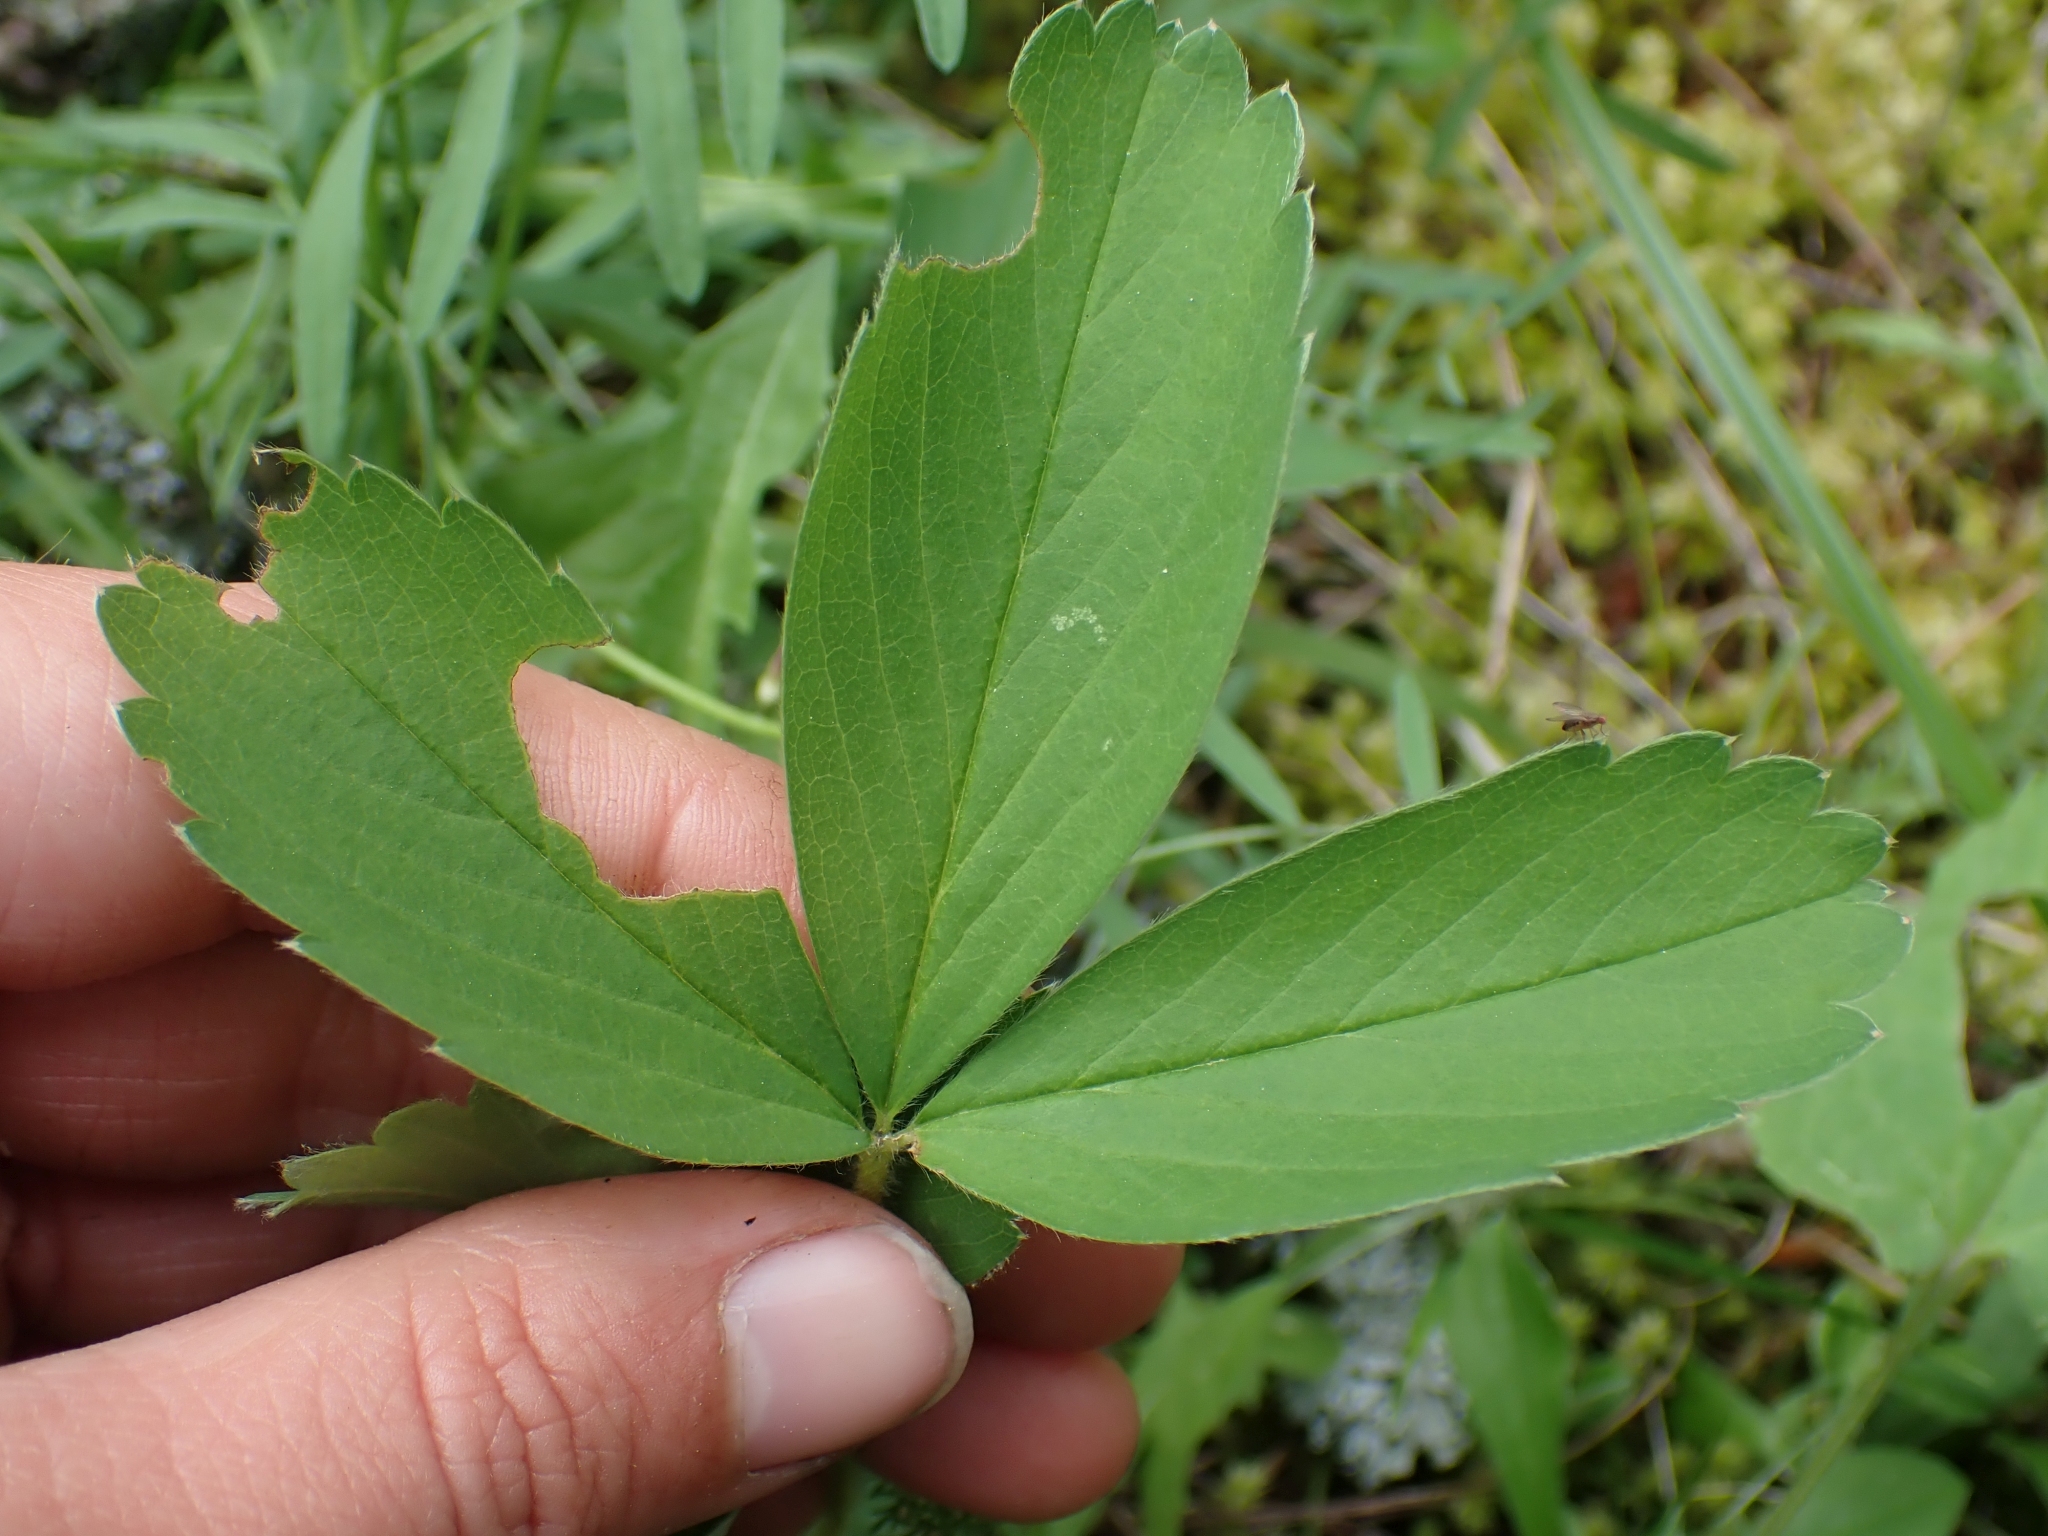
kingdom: Plantae
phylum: Tracheophyta
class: Magnoliopsida
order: Rosales
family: Rosaceae
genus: Fragaria
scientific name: Fragaria virginiana
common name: Thickleaved wild strawberry
